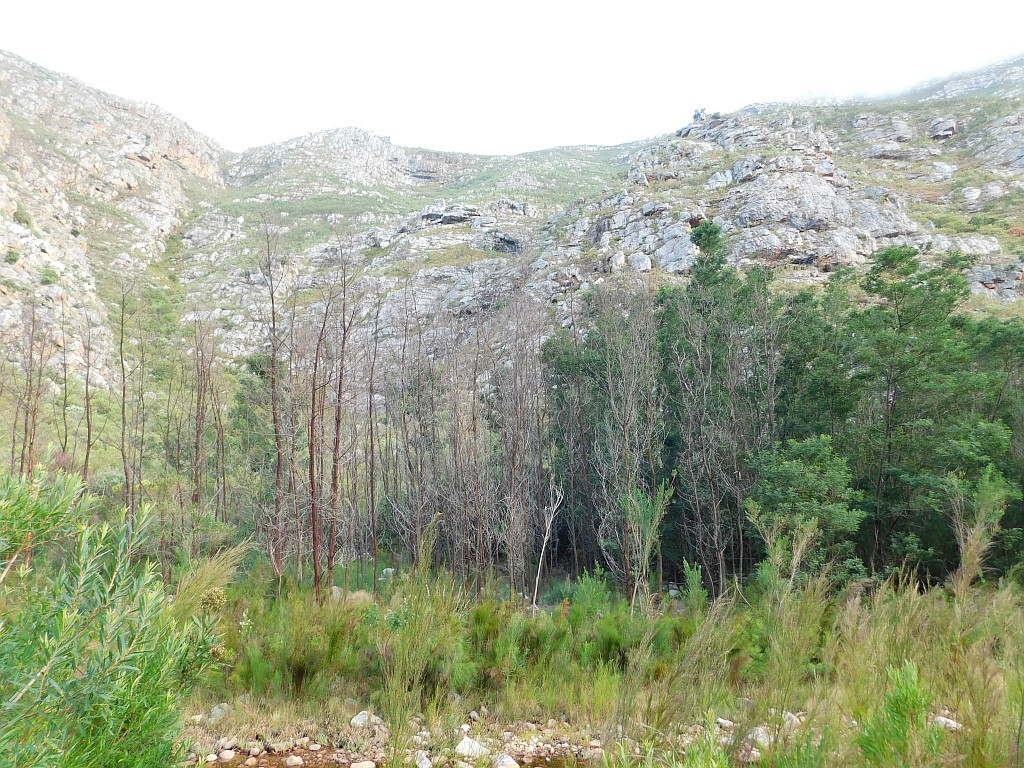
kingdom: Plantae
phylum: Tracheophyta
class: Magnoliopsida
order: Fabales
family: Fabaceae
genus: Acacia
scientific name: Acacia mearnsii
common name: Black wattle
